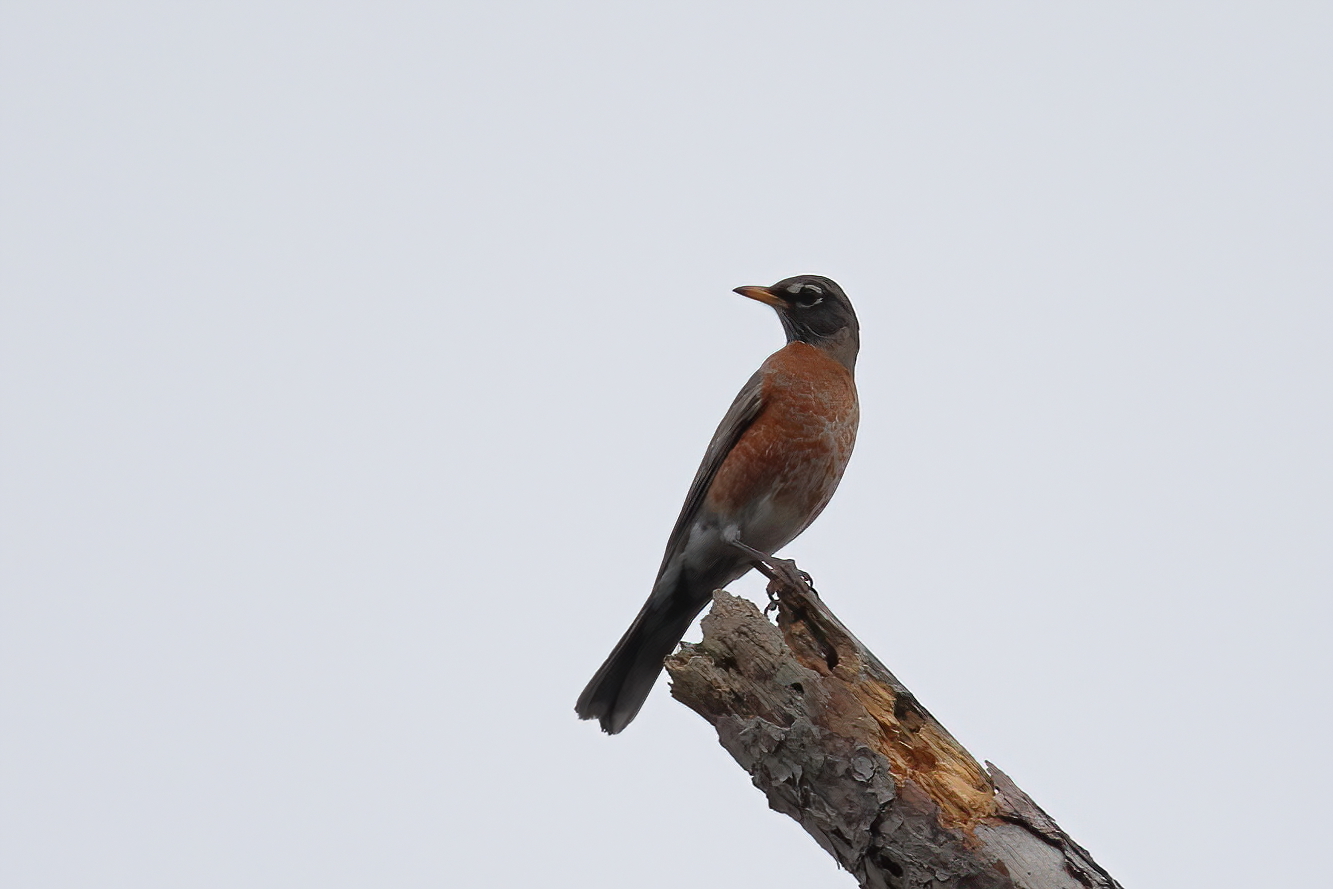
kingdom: Animalia
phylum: Chordata
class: Aves
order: Passeriformes
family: Turdidae
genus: Turdus
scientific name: Turdus migratorius
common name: American robin
